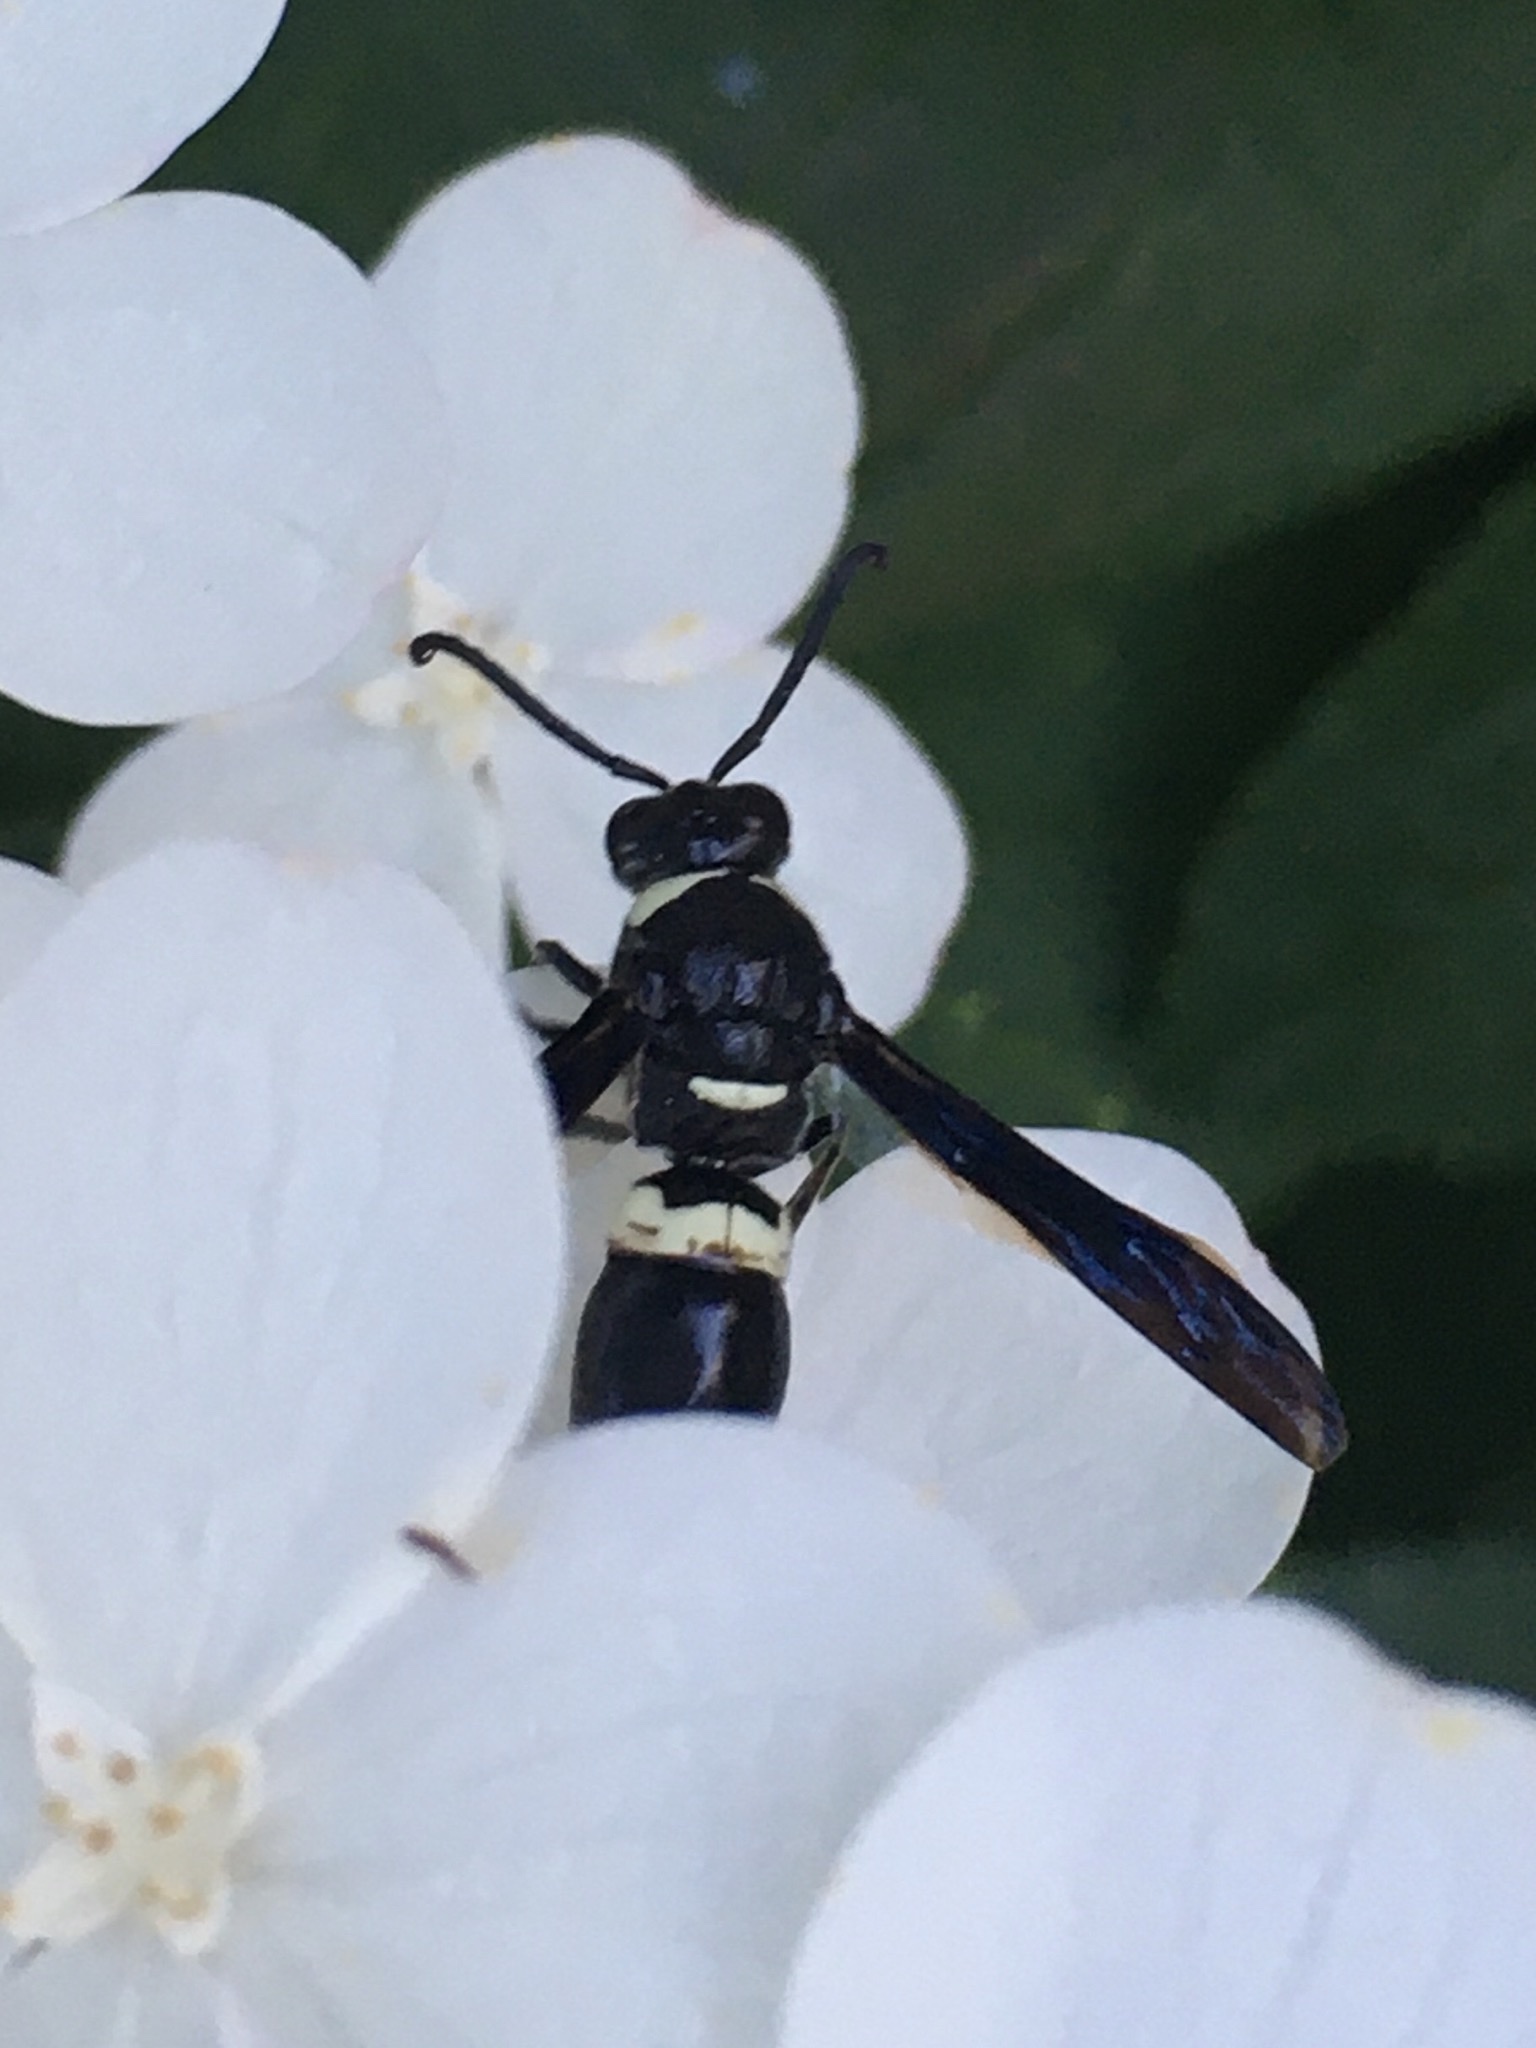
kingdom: Animalia
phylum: Arthropoda
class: Insecta
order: Hymenoptera
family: Eumenidae
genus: Monobia
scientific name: Monobia quadridens
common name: Four-toothed mason wasp
